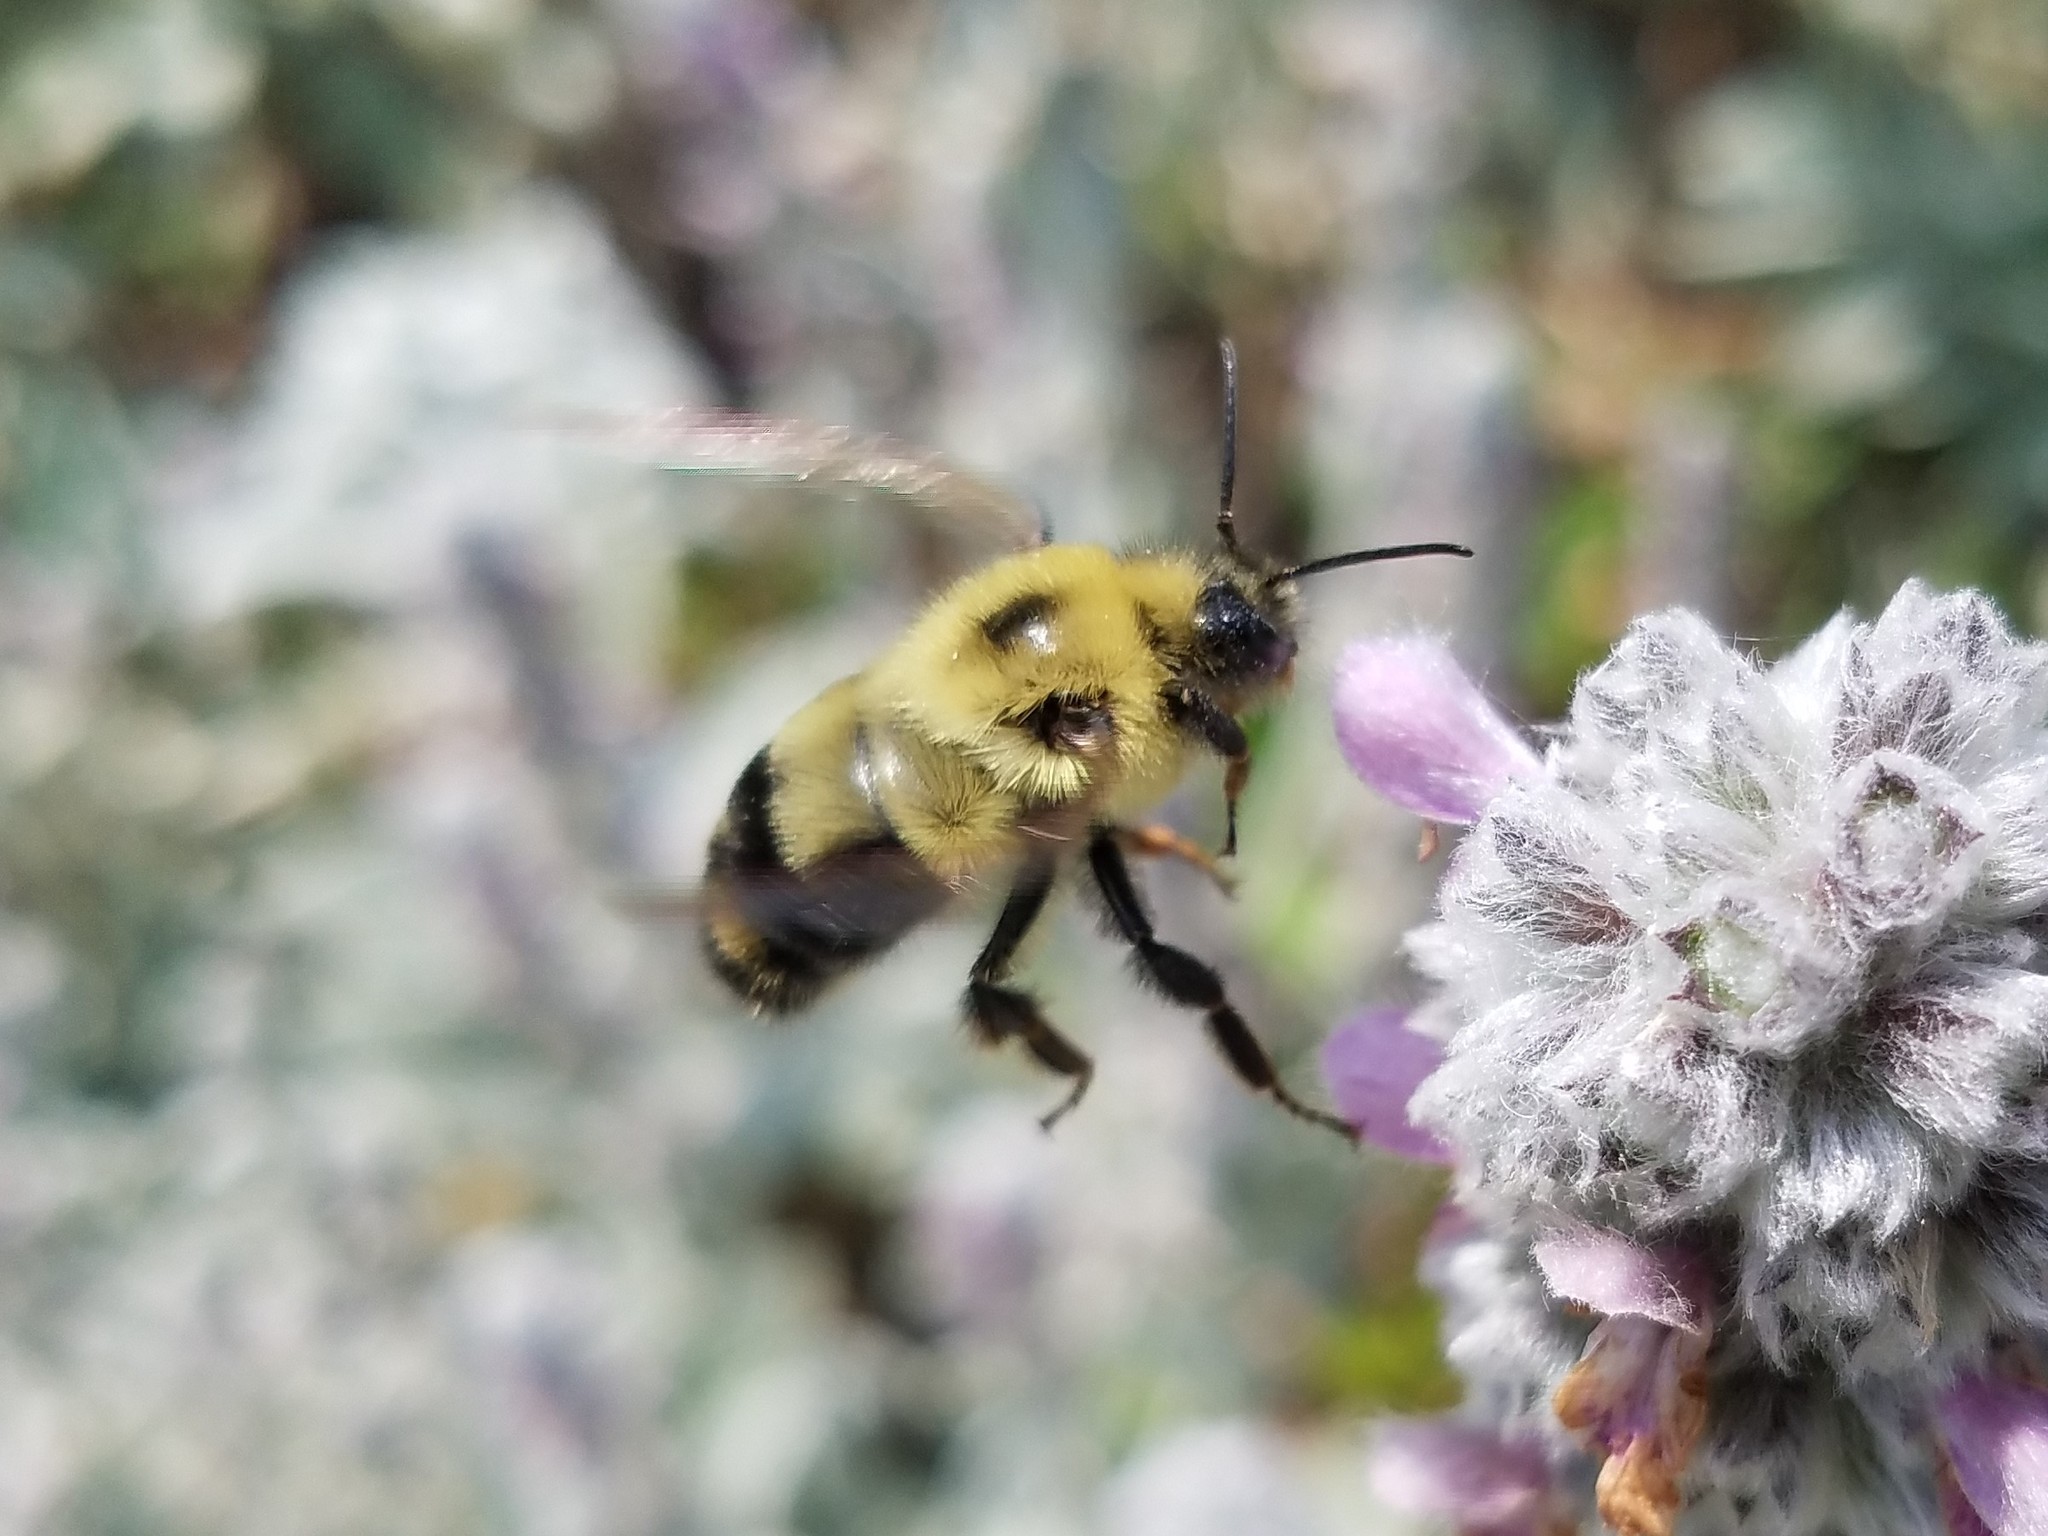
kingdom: Animalia
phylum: Arthropoda
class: Insecta
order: Hymenoptera
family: Apidae
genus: Bombus
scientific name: Bombus bimaculatus
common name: Two-spotted bumble bee
